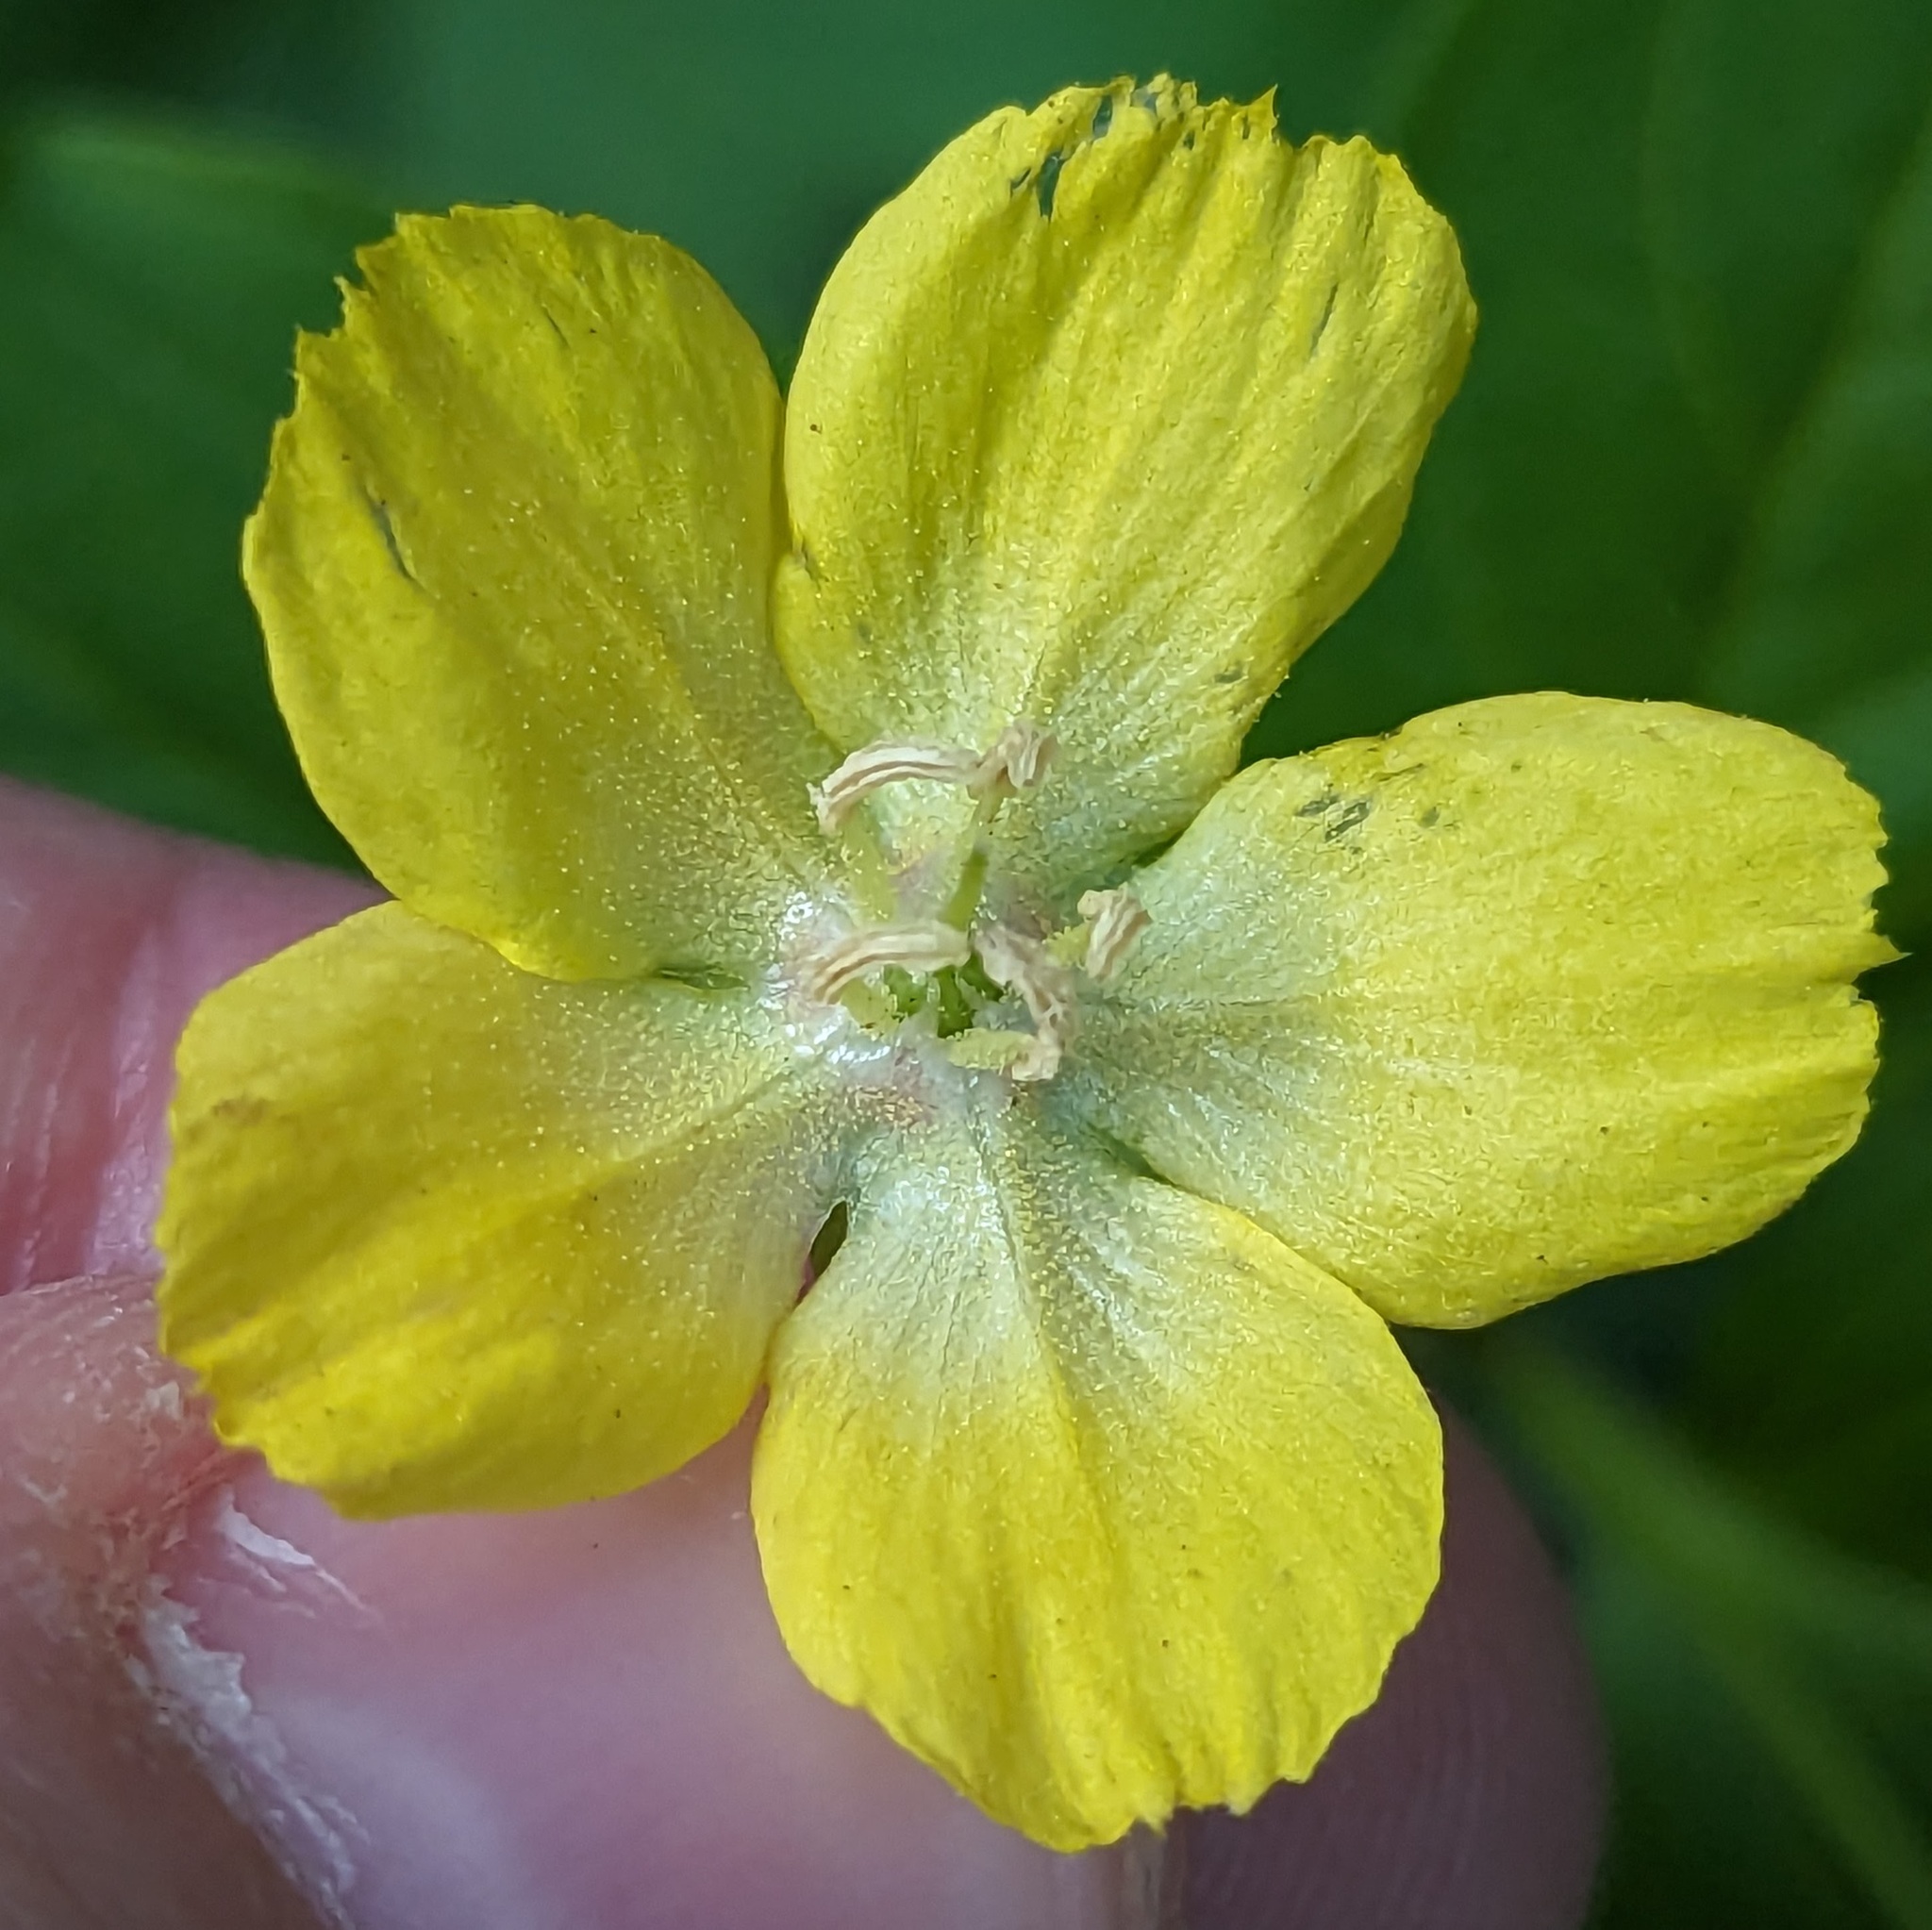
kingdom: Plantae
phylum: Tracheophyta
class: Magnoliopsida
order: Ericales
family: Primulaceae
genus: Lysimachia
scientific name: Lysimachia ciliata
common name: Fringed loosestrife
